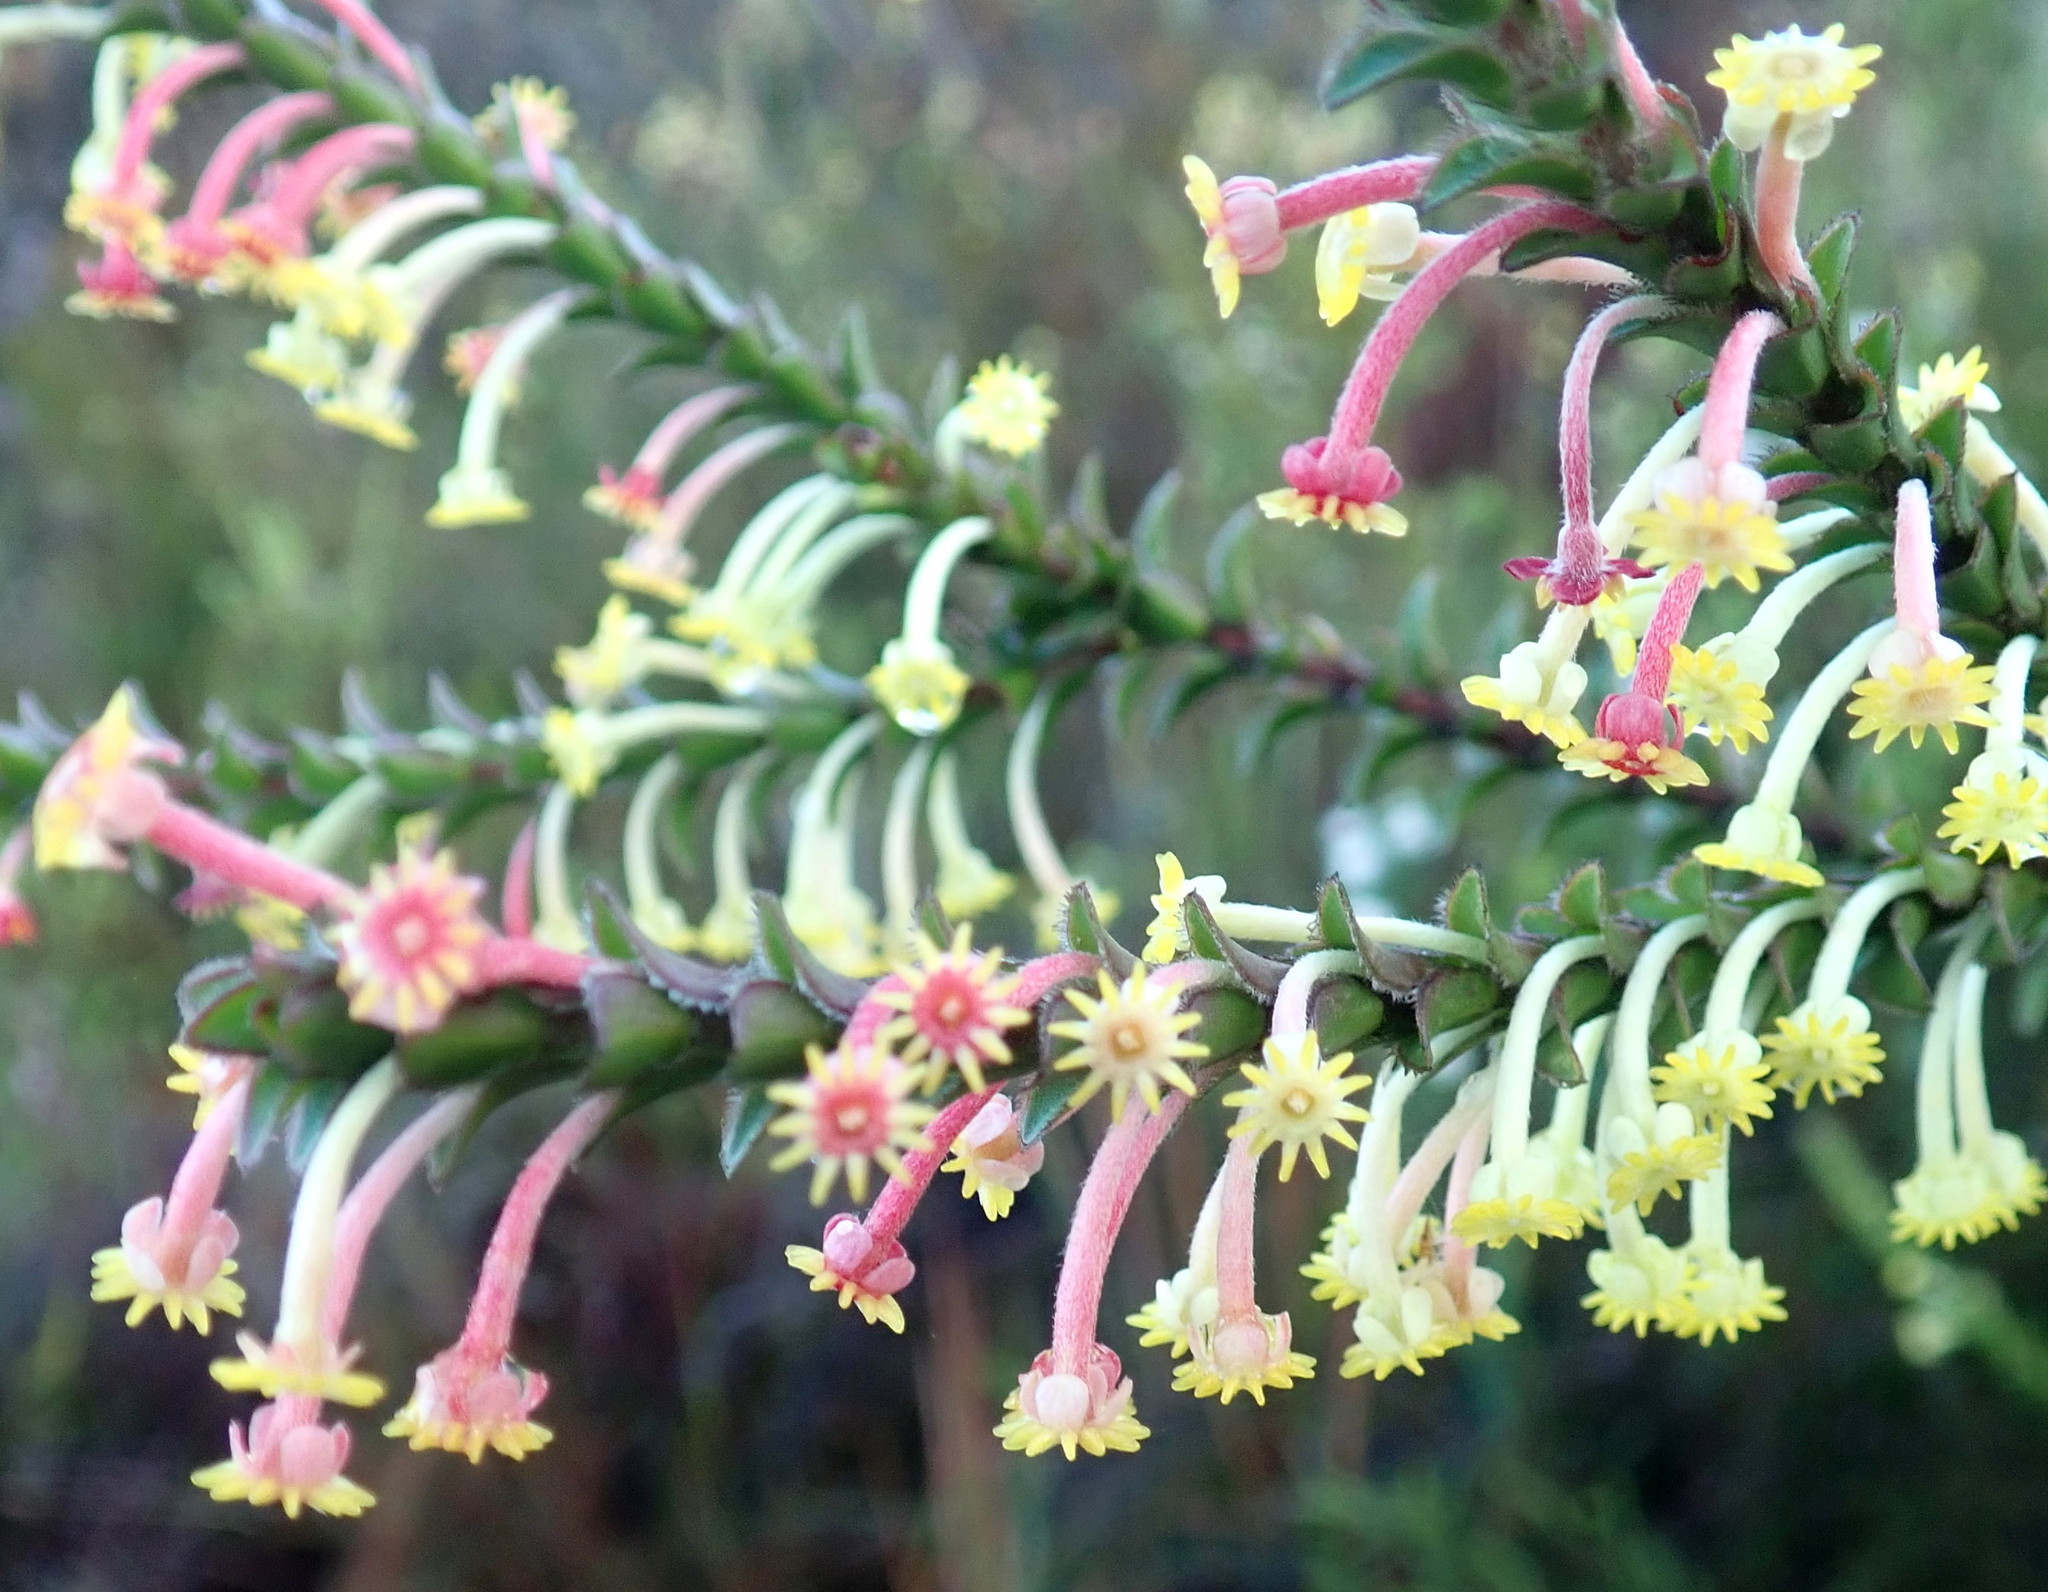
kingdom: Plantae
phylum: Tracheophyta
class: Magnoliopsida
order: Malvales
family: Thymelaeaceae
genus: Struthiola
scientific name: Struthiola argentea
